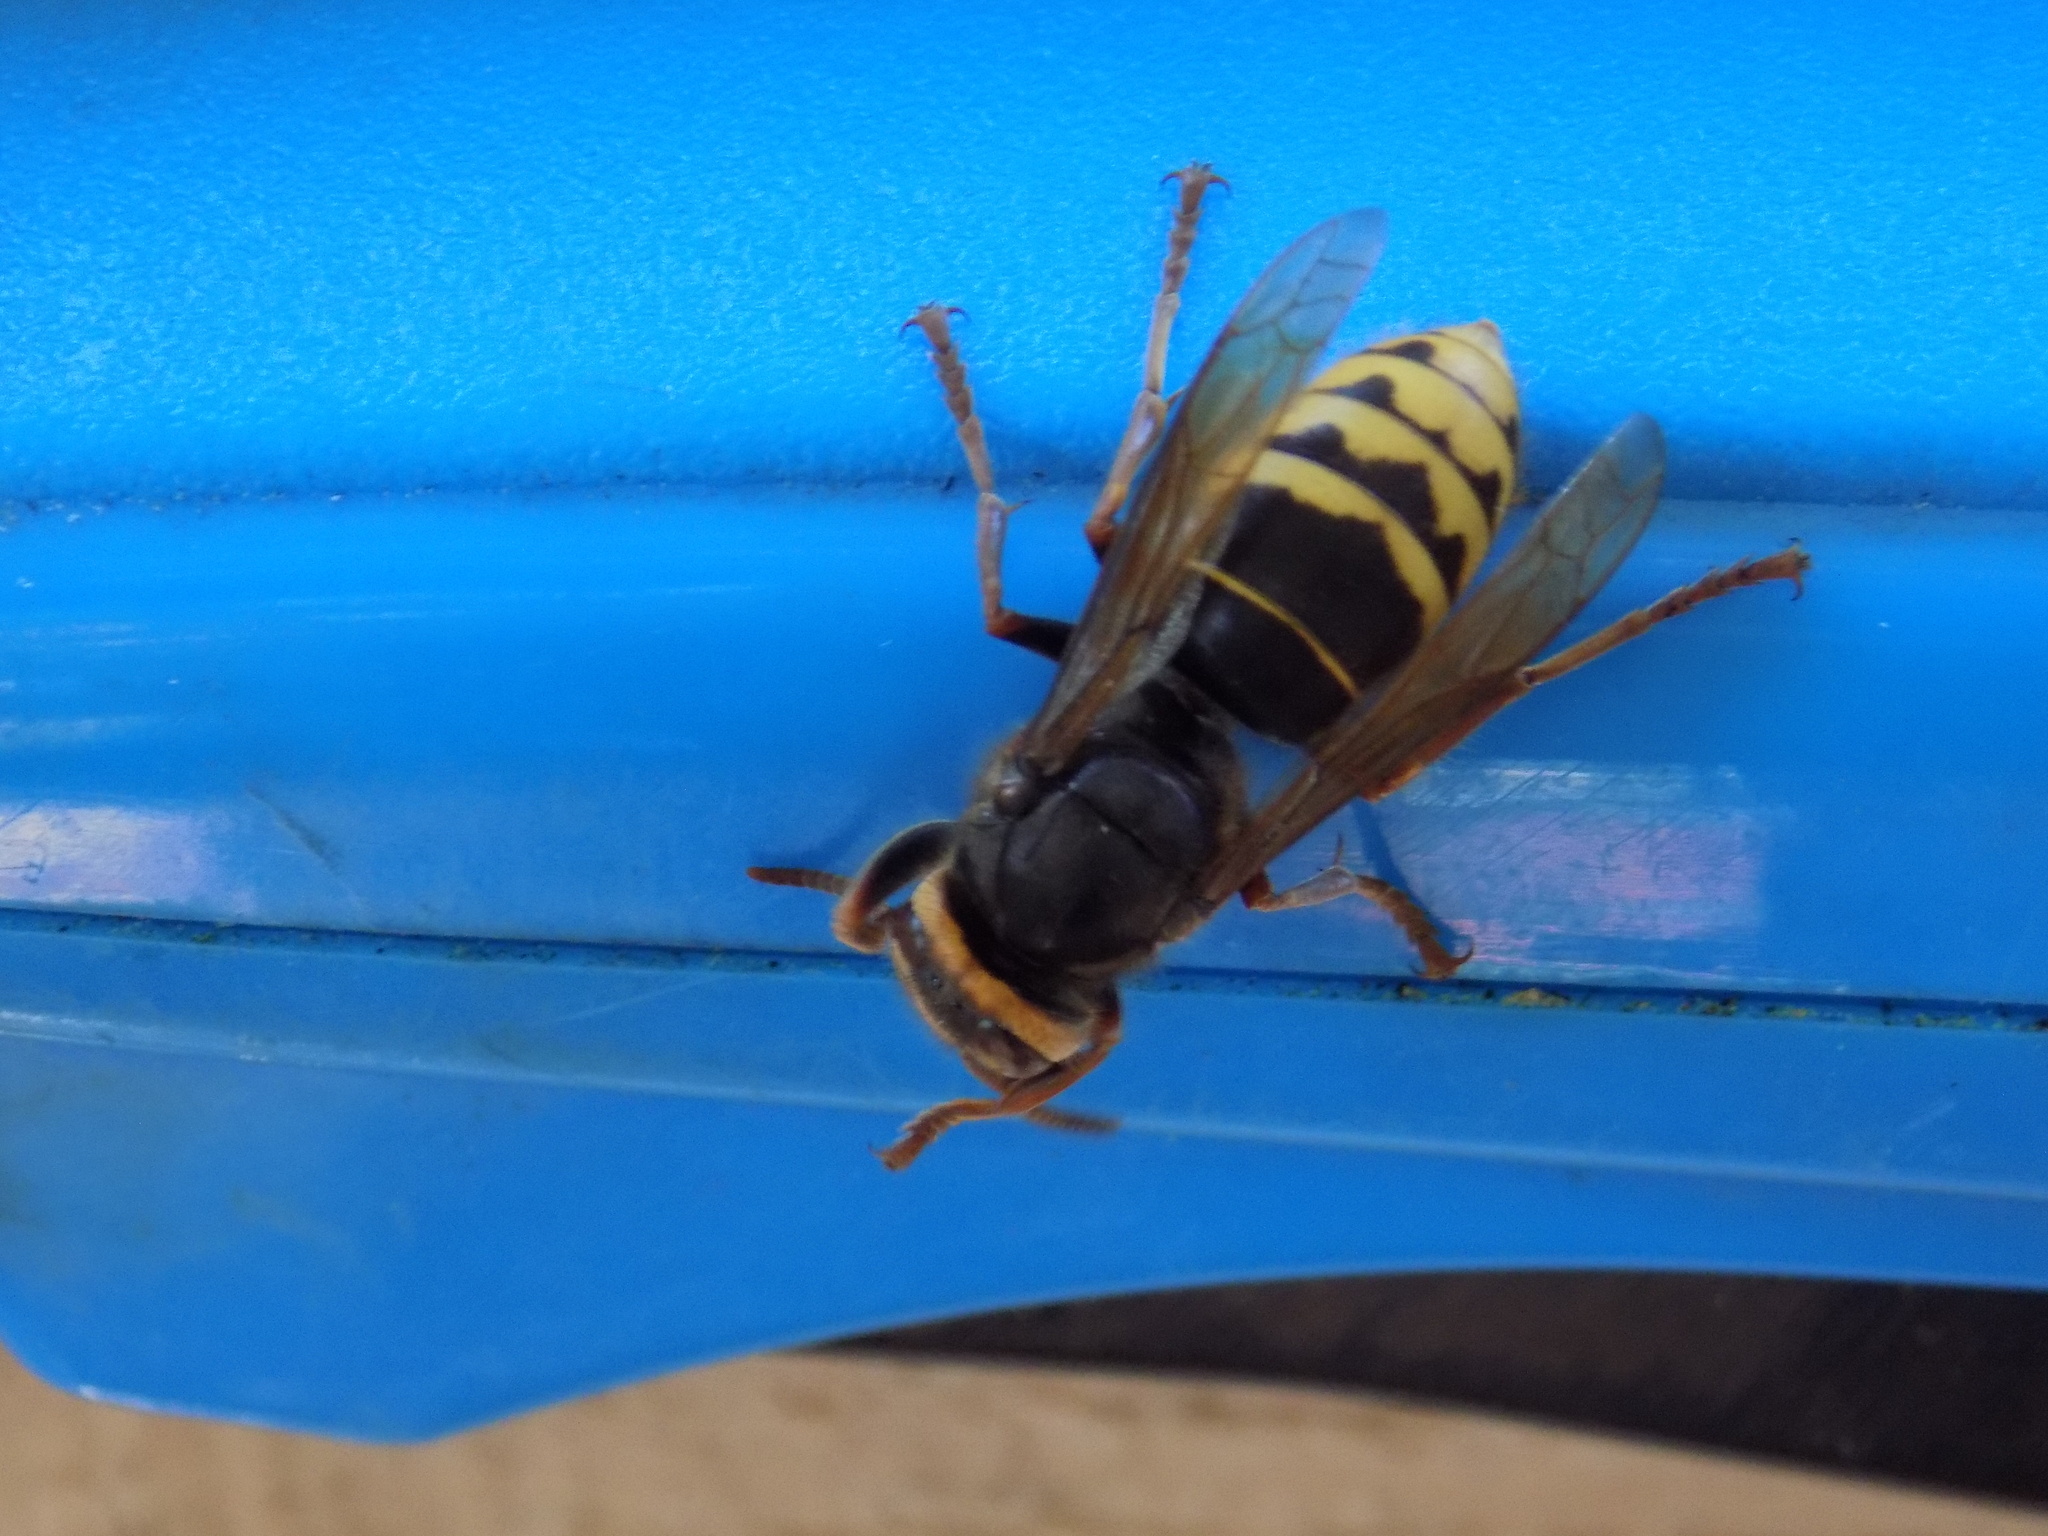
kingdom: Animalia
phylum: Arthropoda
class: Insecta
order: Hymenoptera
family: Vespidae
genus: Vespa
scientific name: Vespa crabro
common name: Hornet
